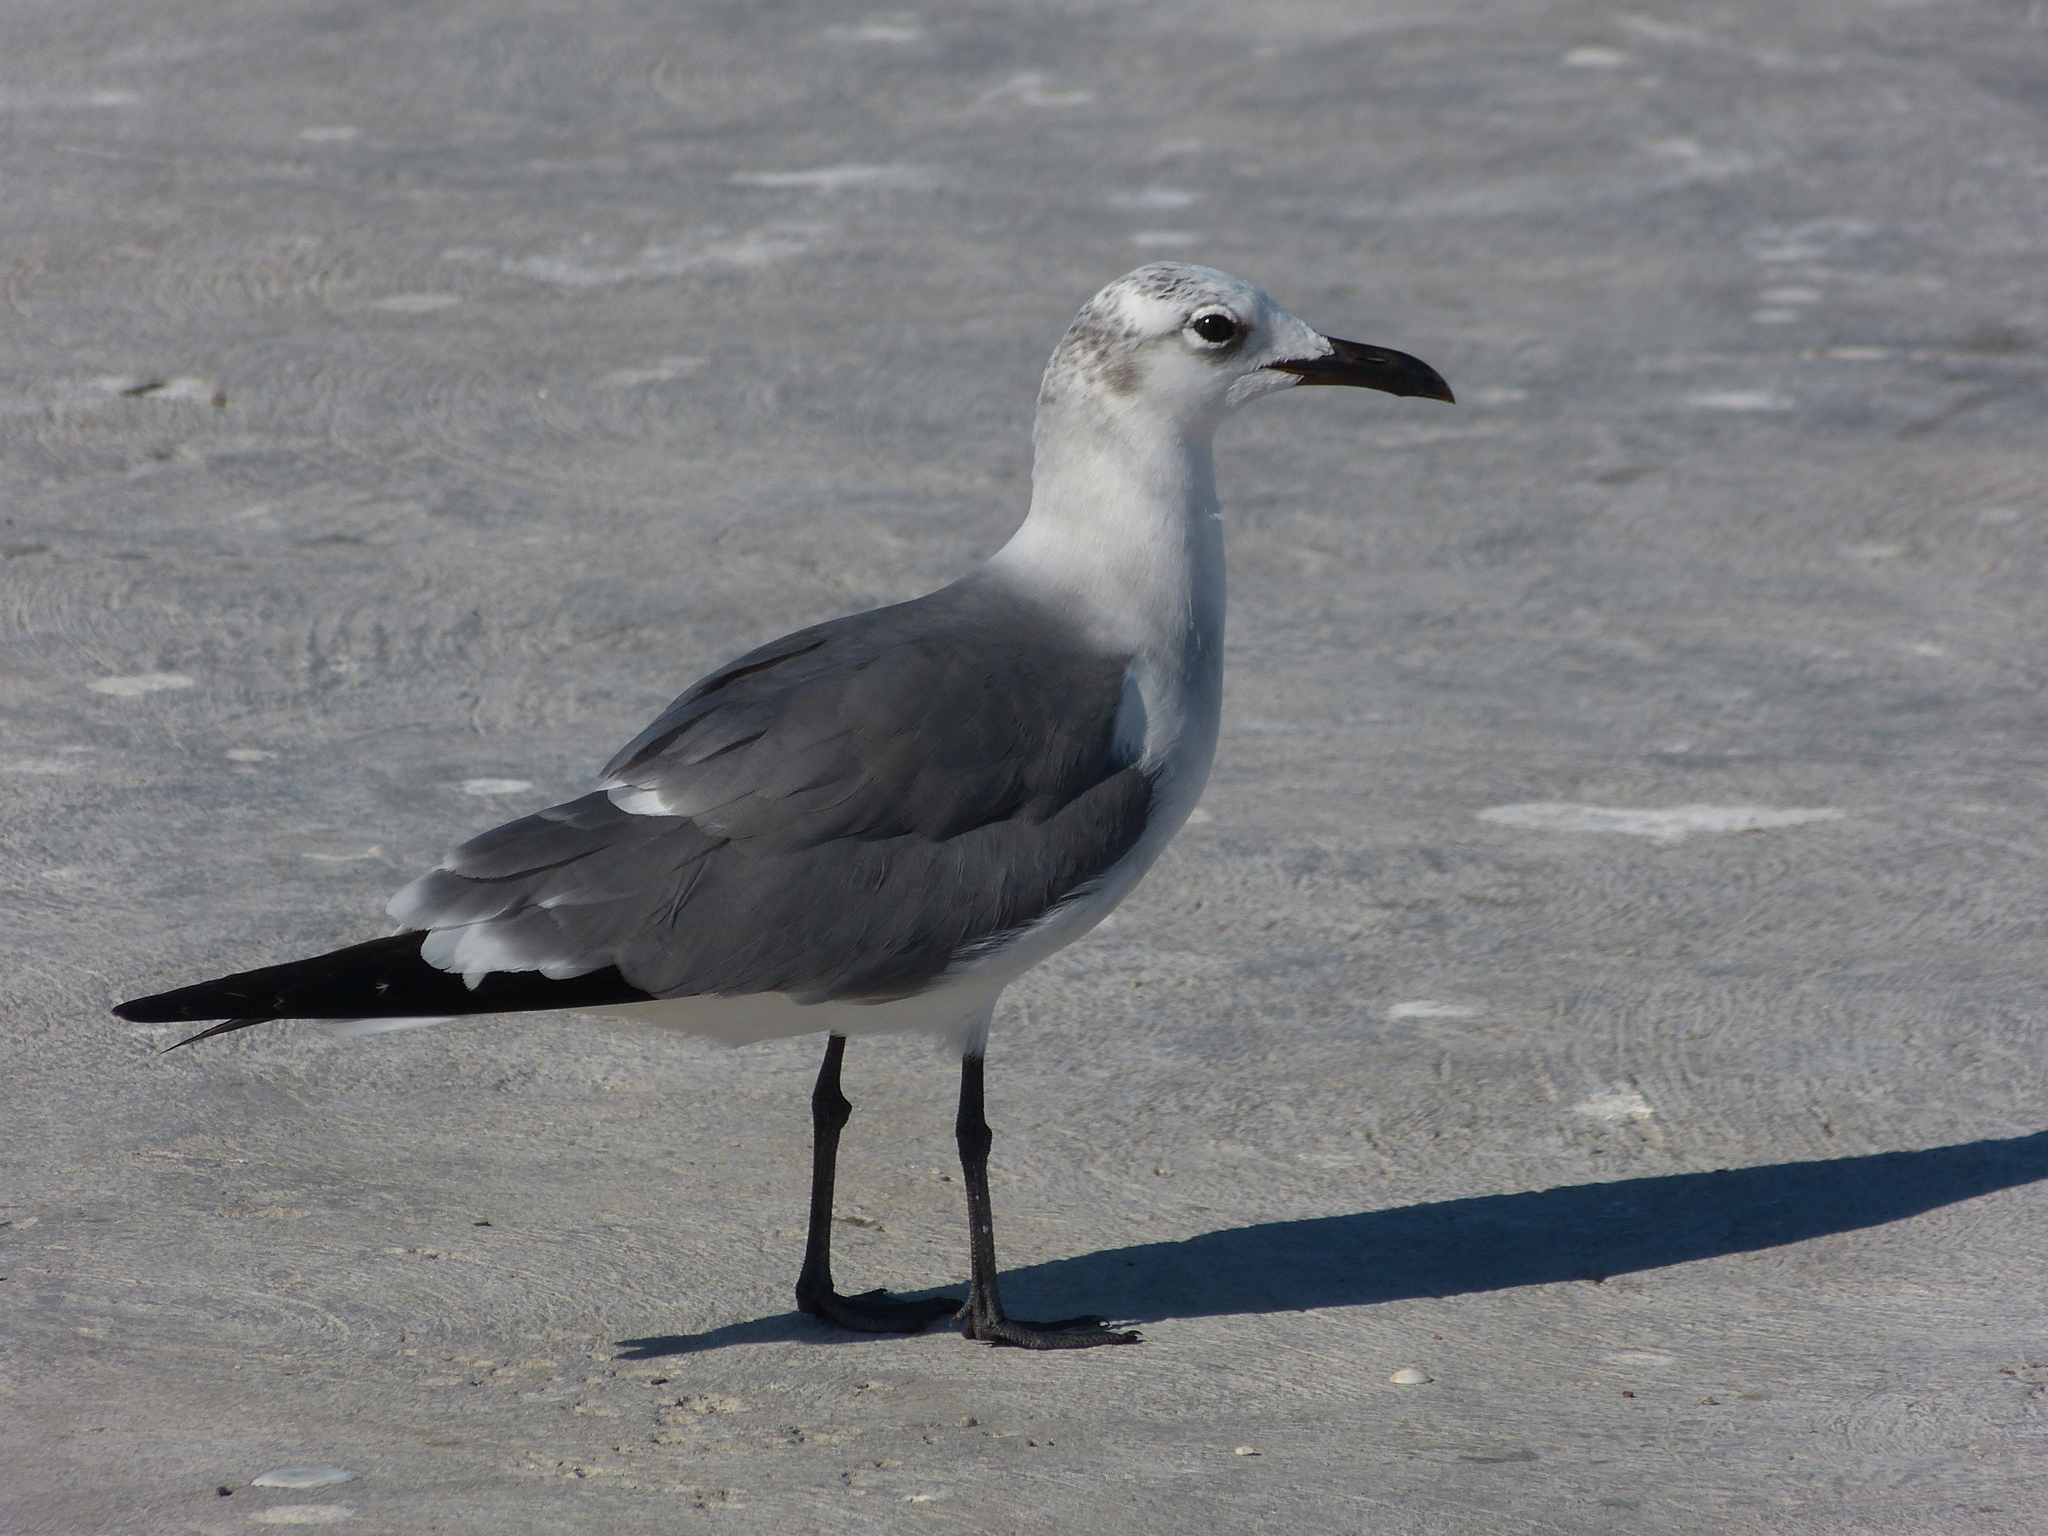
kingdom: Animalia
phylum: Chordata
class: Aves
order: Charadriiformes
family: Laridae
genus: Leucophaeus
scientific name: Leucophaeus atricilla
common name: Laughing gull
